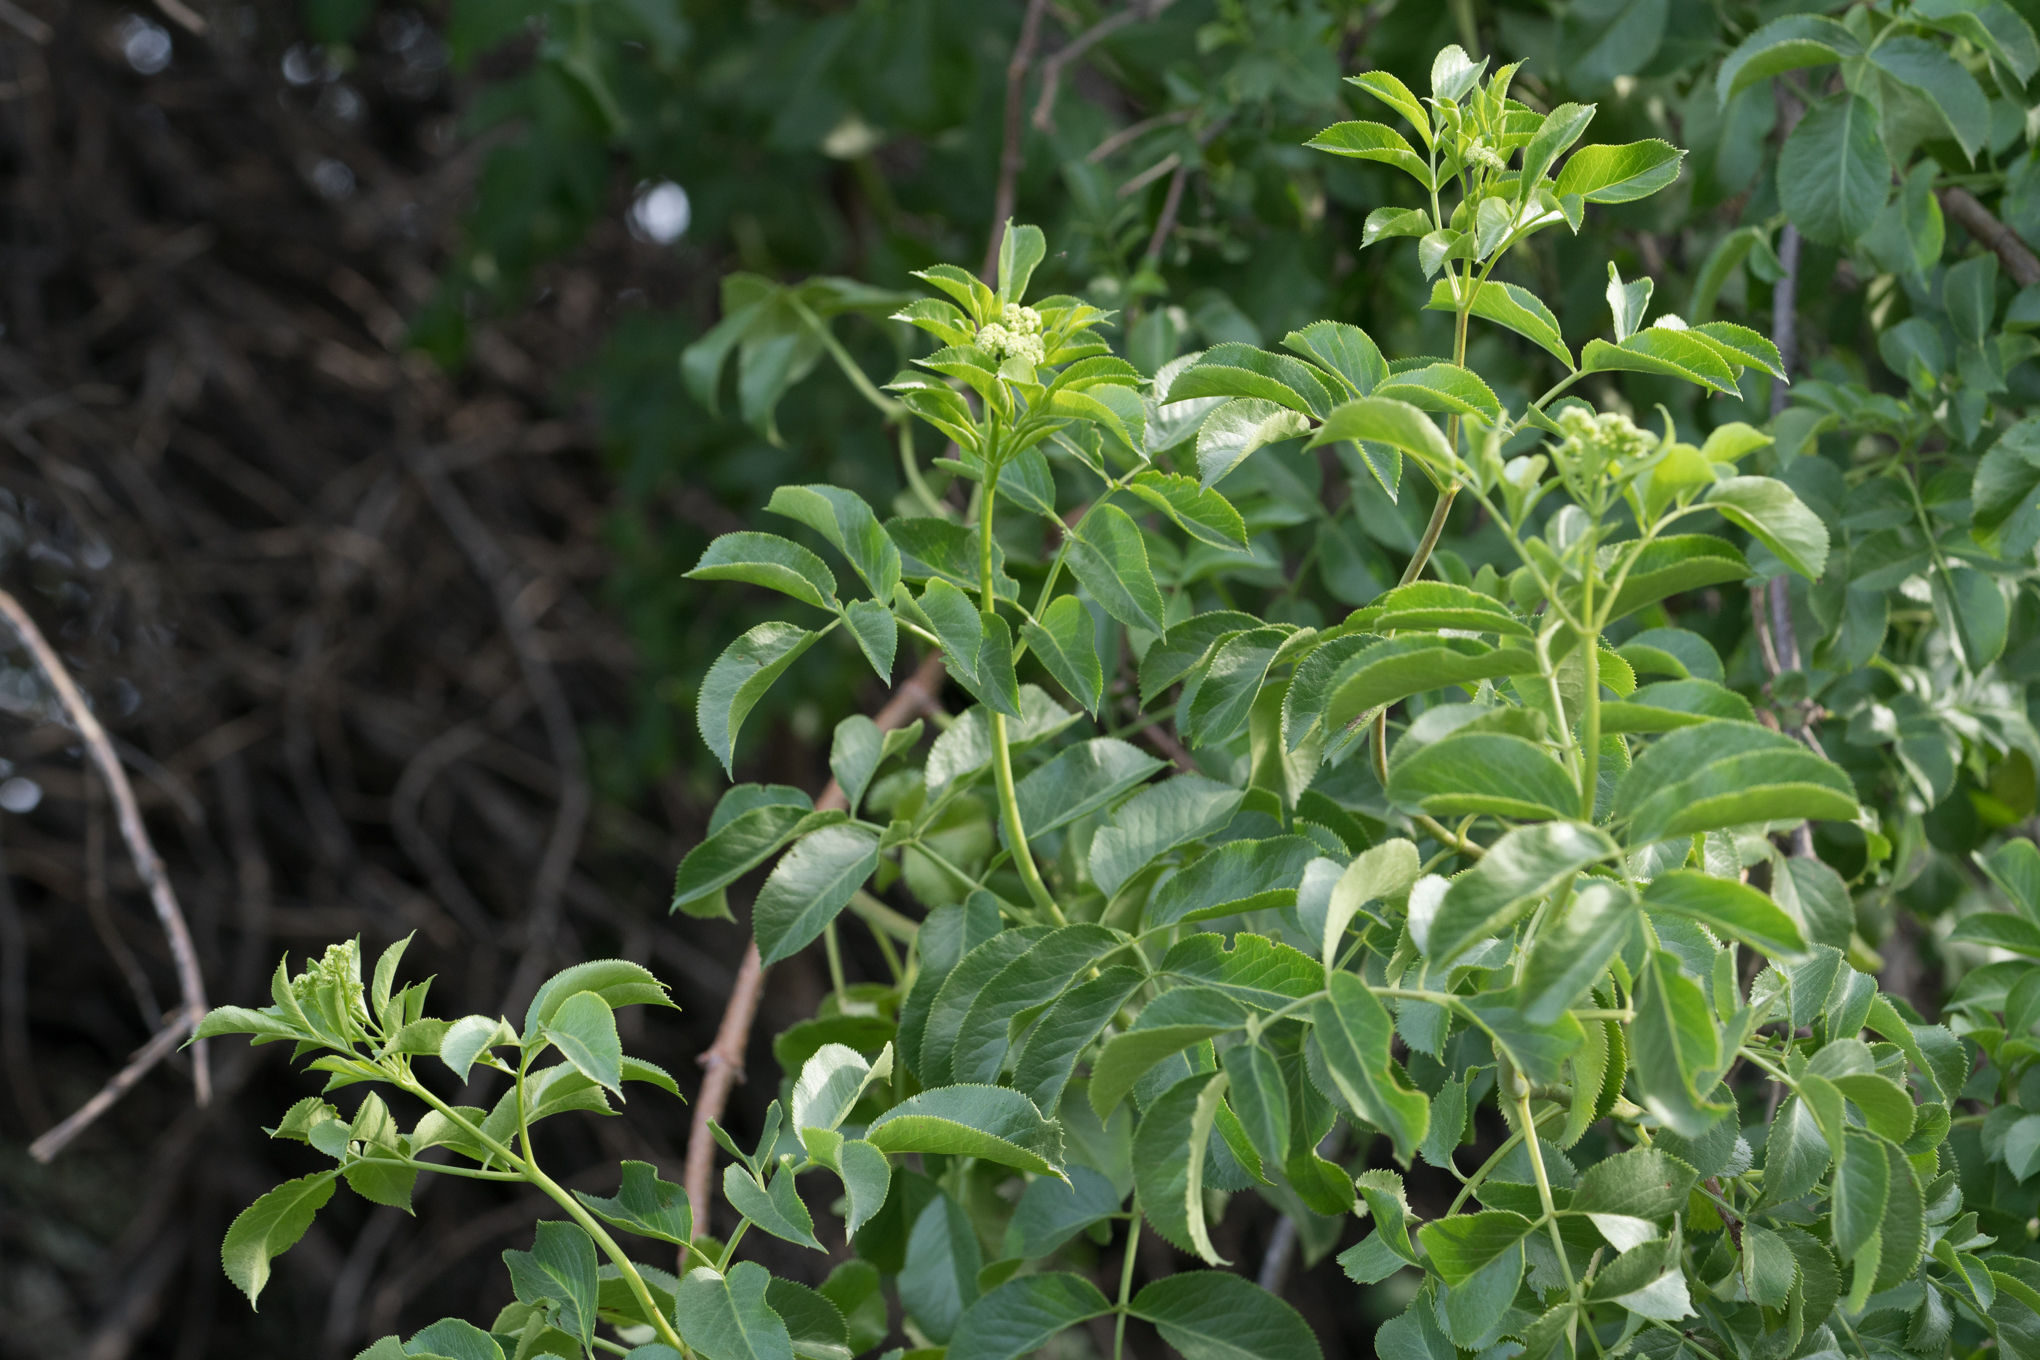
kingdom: Plantae
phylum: Tracheophyta
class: Magnoliopsida
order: Dipsacales
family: Viburnaceae
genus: Sambucus
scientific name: Sambucus cerulea
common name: Blue elder
